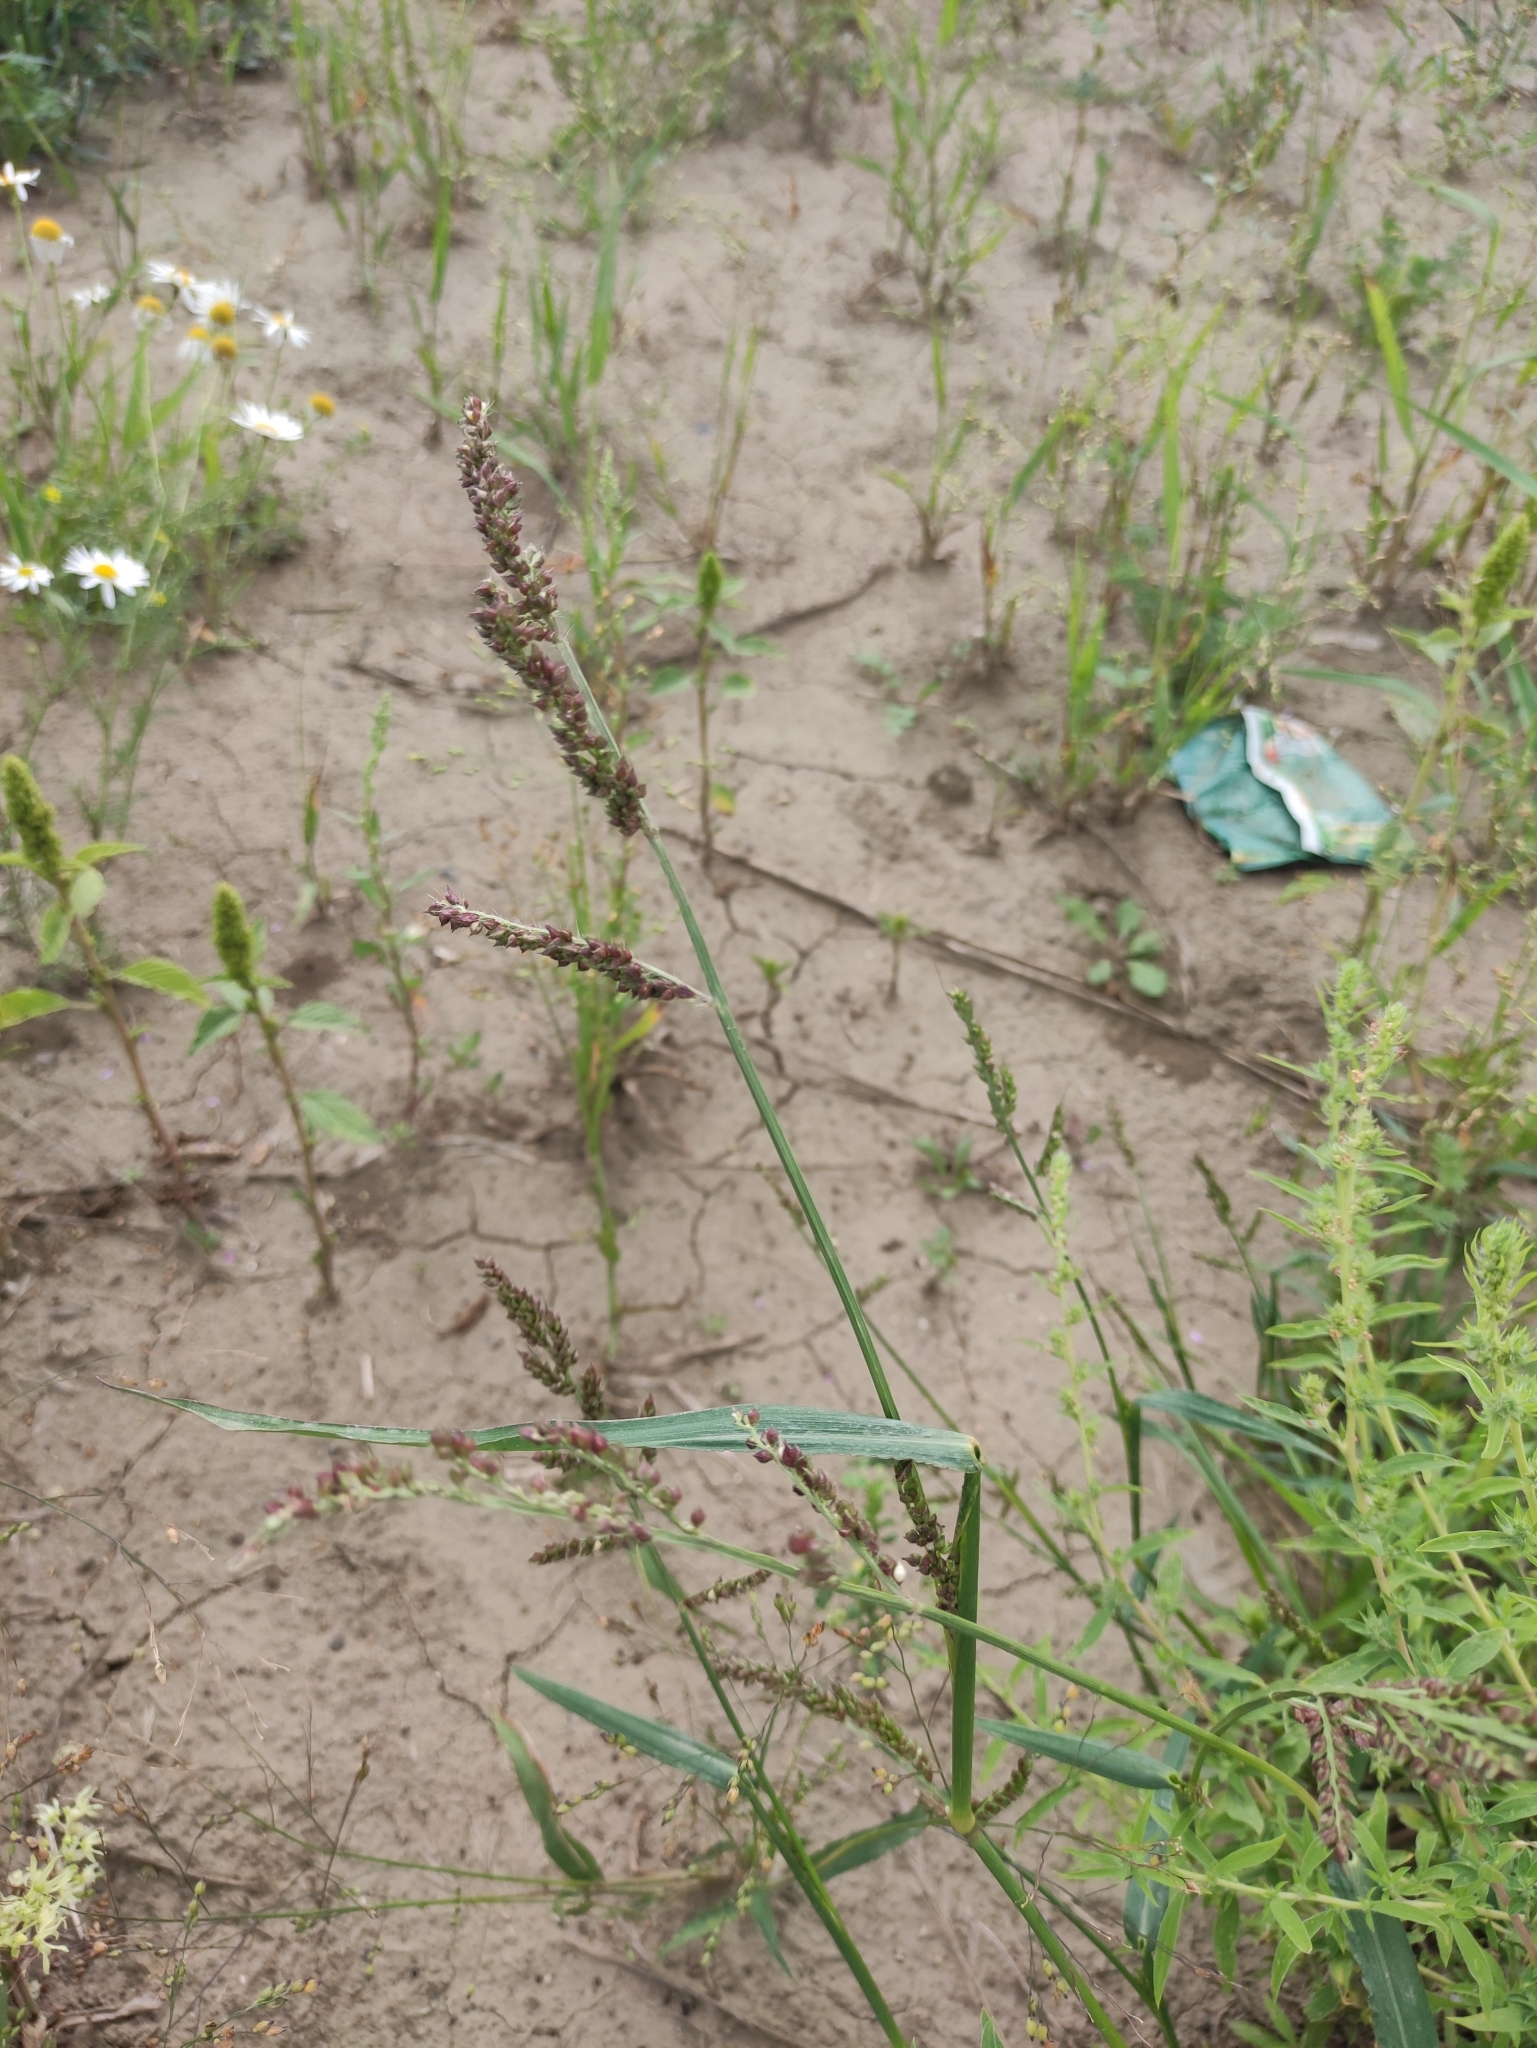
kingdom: Plantae
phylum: Tracheophyta
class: Liliopsida
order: Poales
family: Poaceae
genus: Echinochloa
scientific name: Echinochloa crus-galli
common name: Cockspur
